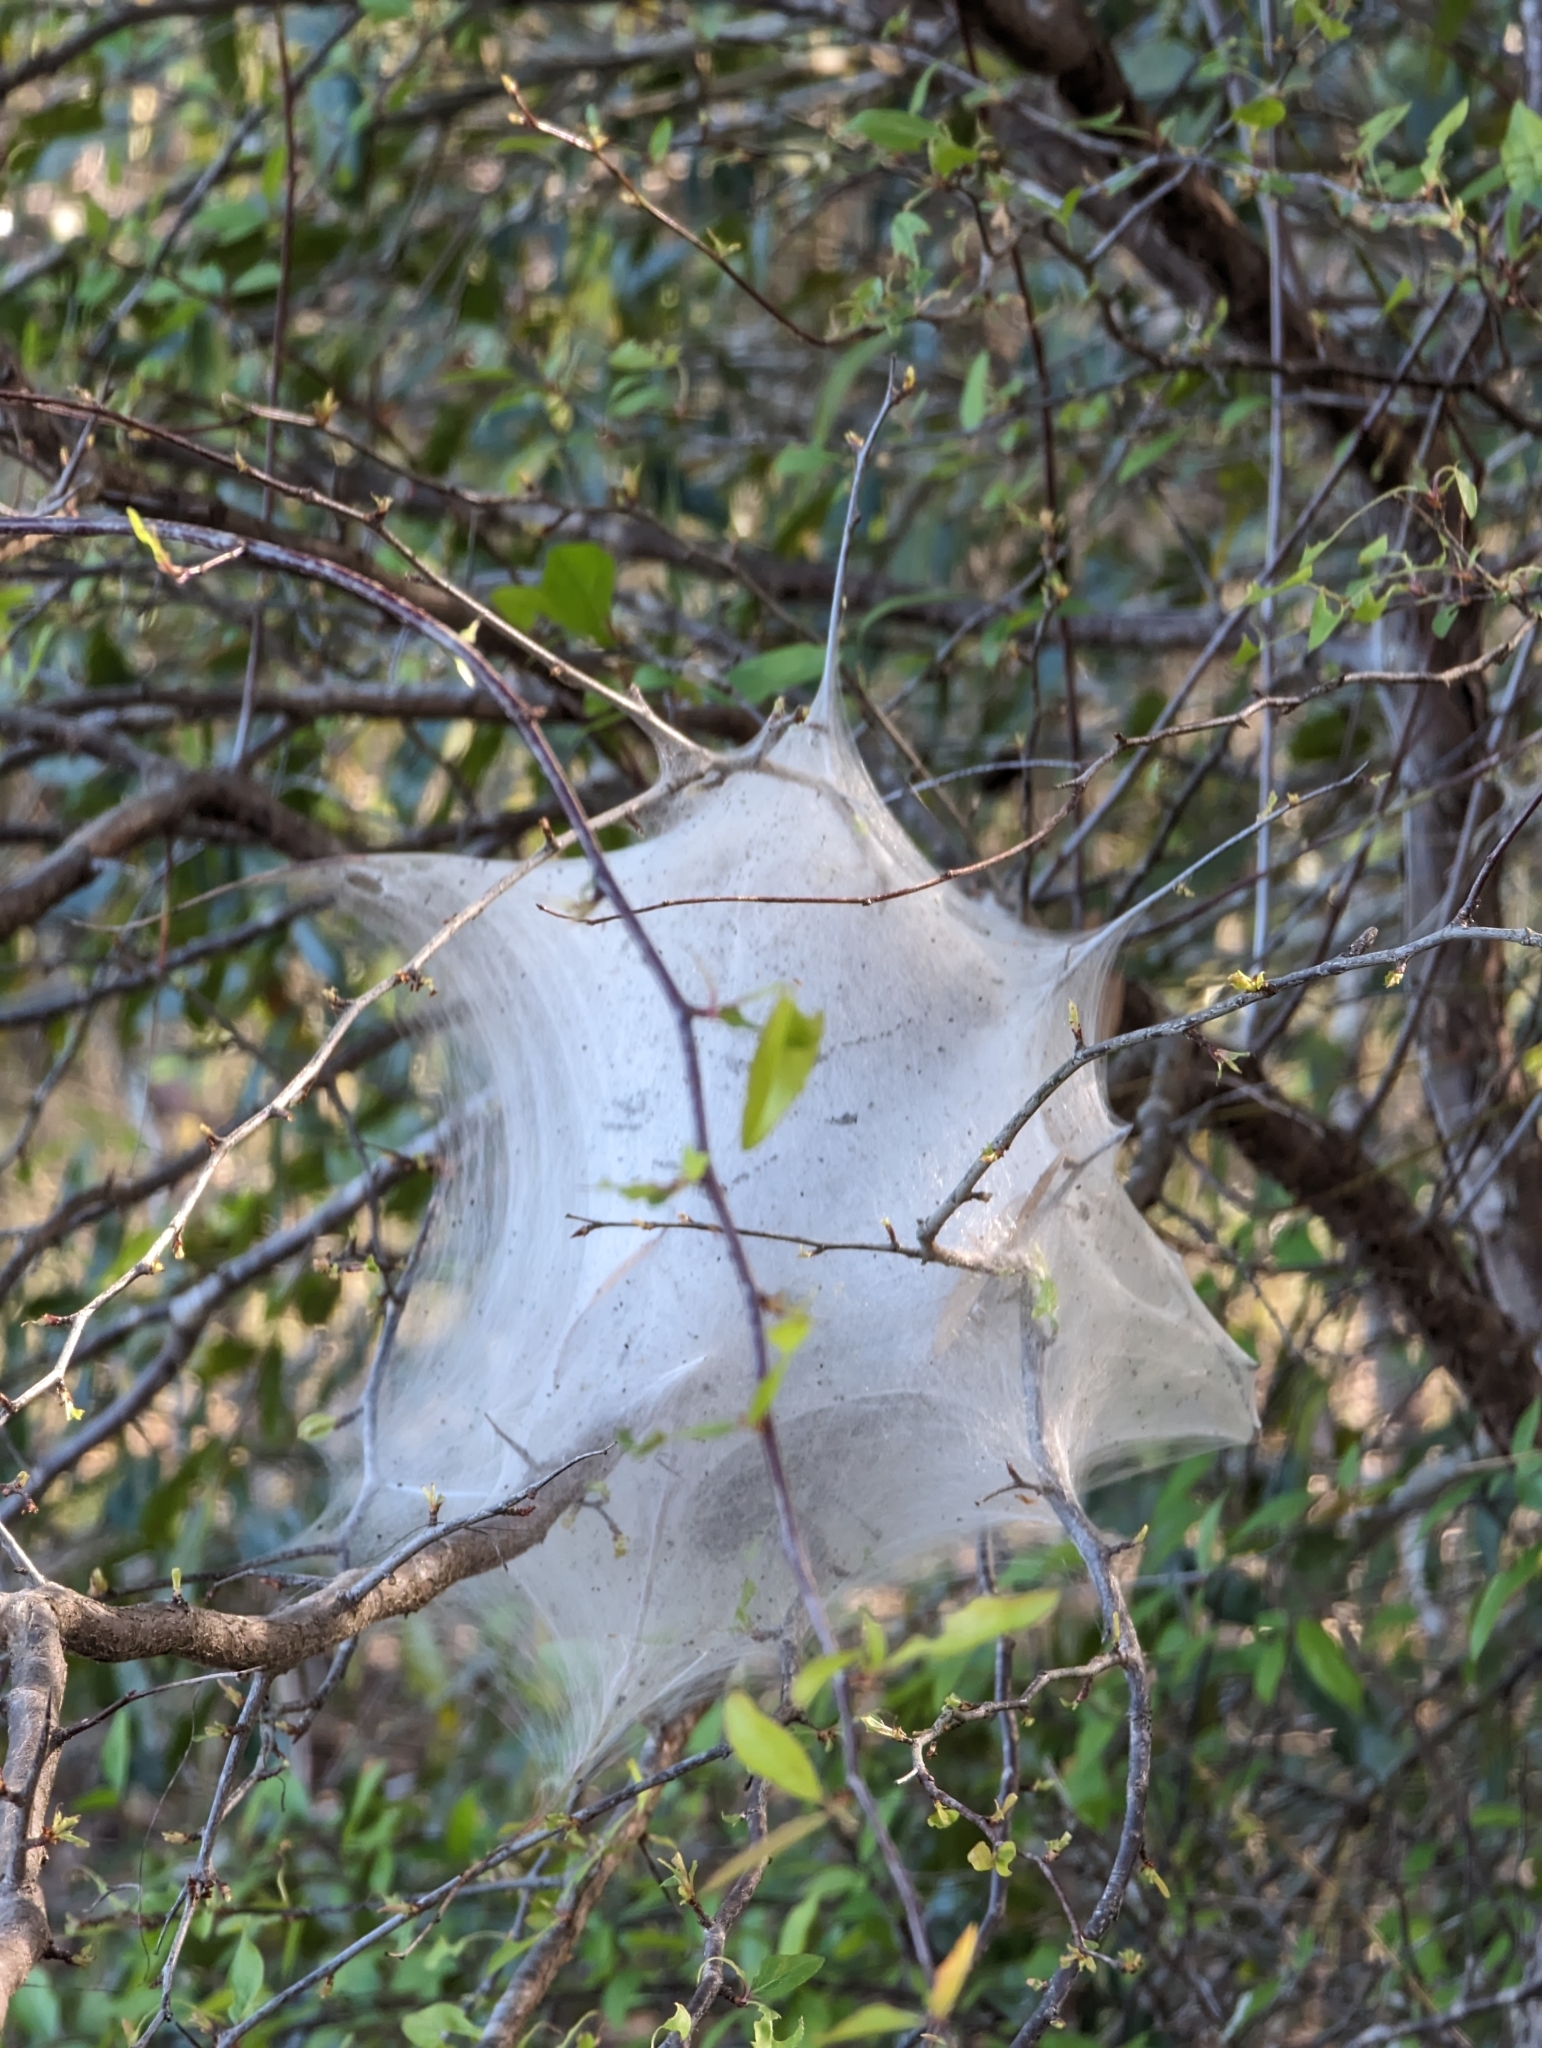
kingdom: Animalia
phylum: Arthropoda
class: Insecta
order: Lepidoptera
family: Lasiocampidae
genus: Malacosoma
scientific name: Malacosoma americana
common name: Eastern tent caterpillar moth
